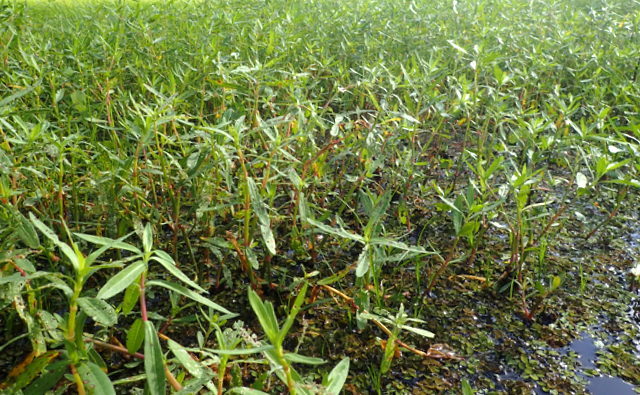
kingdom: Plantae
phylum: Tracheophyta
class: Magnoliopsida
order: Caryophyllales
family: Amaranthaceae
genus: Alternanthera
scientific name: Alternanthera philoxeroides
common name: Alligatorweed
